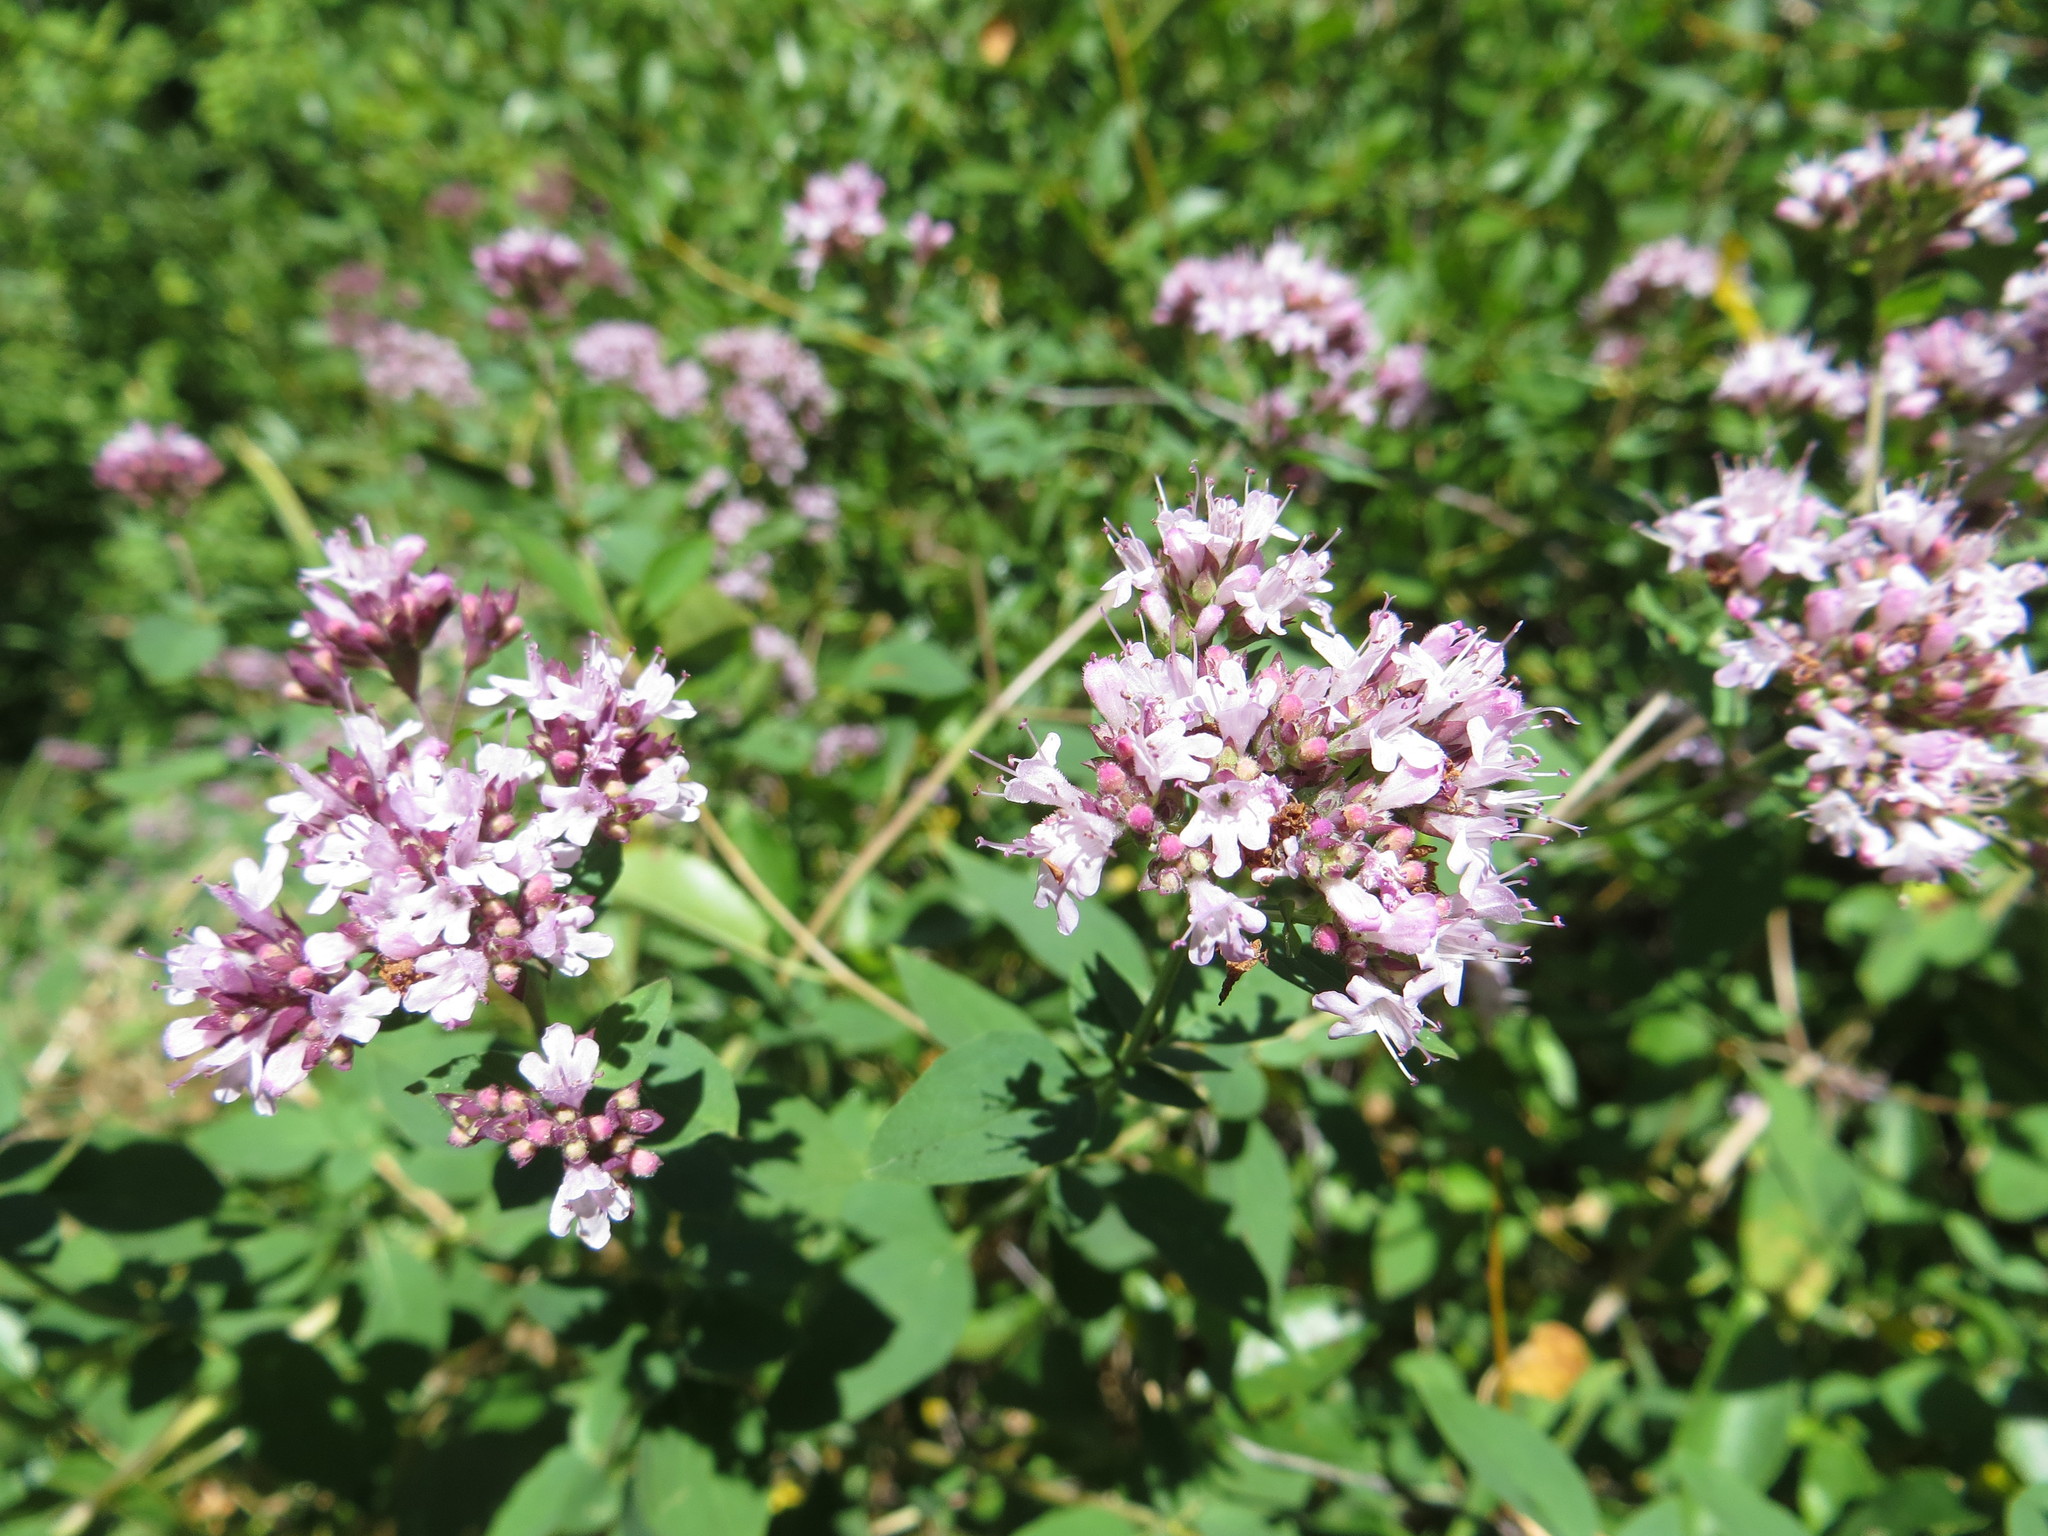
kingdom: Plantae
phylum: Tracheophyta
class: Magnoliopsida
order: Lamiales
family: Lamiaceae
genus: Origanum
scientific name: Origanum vulgare
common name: Wild marjoram
